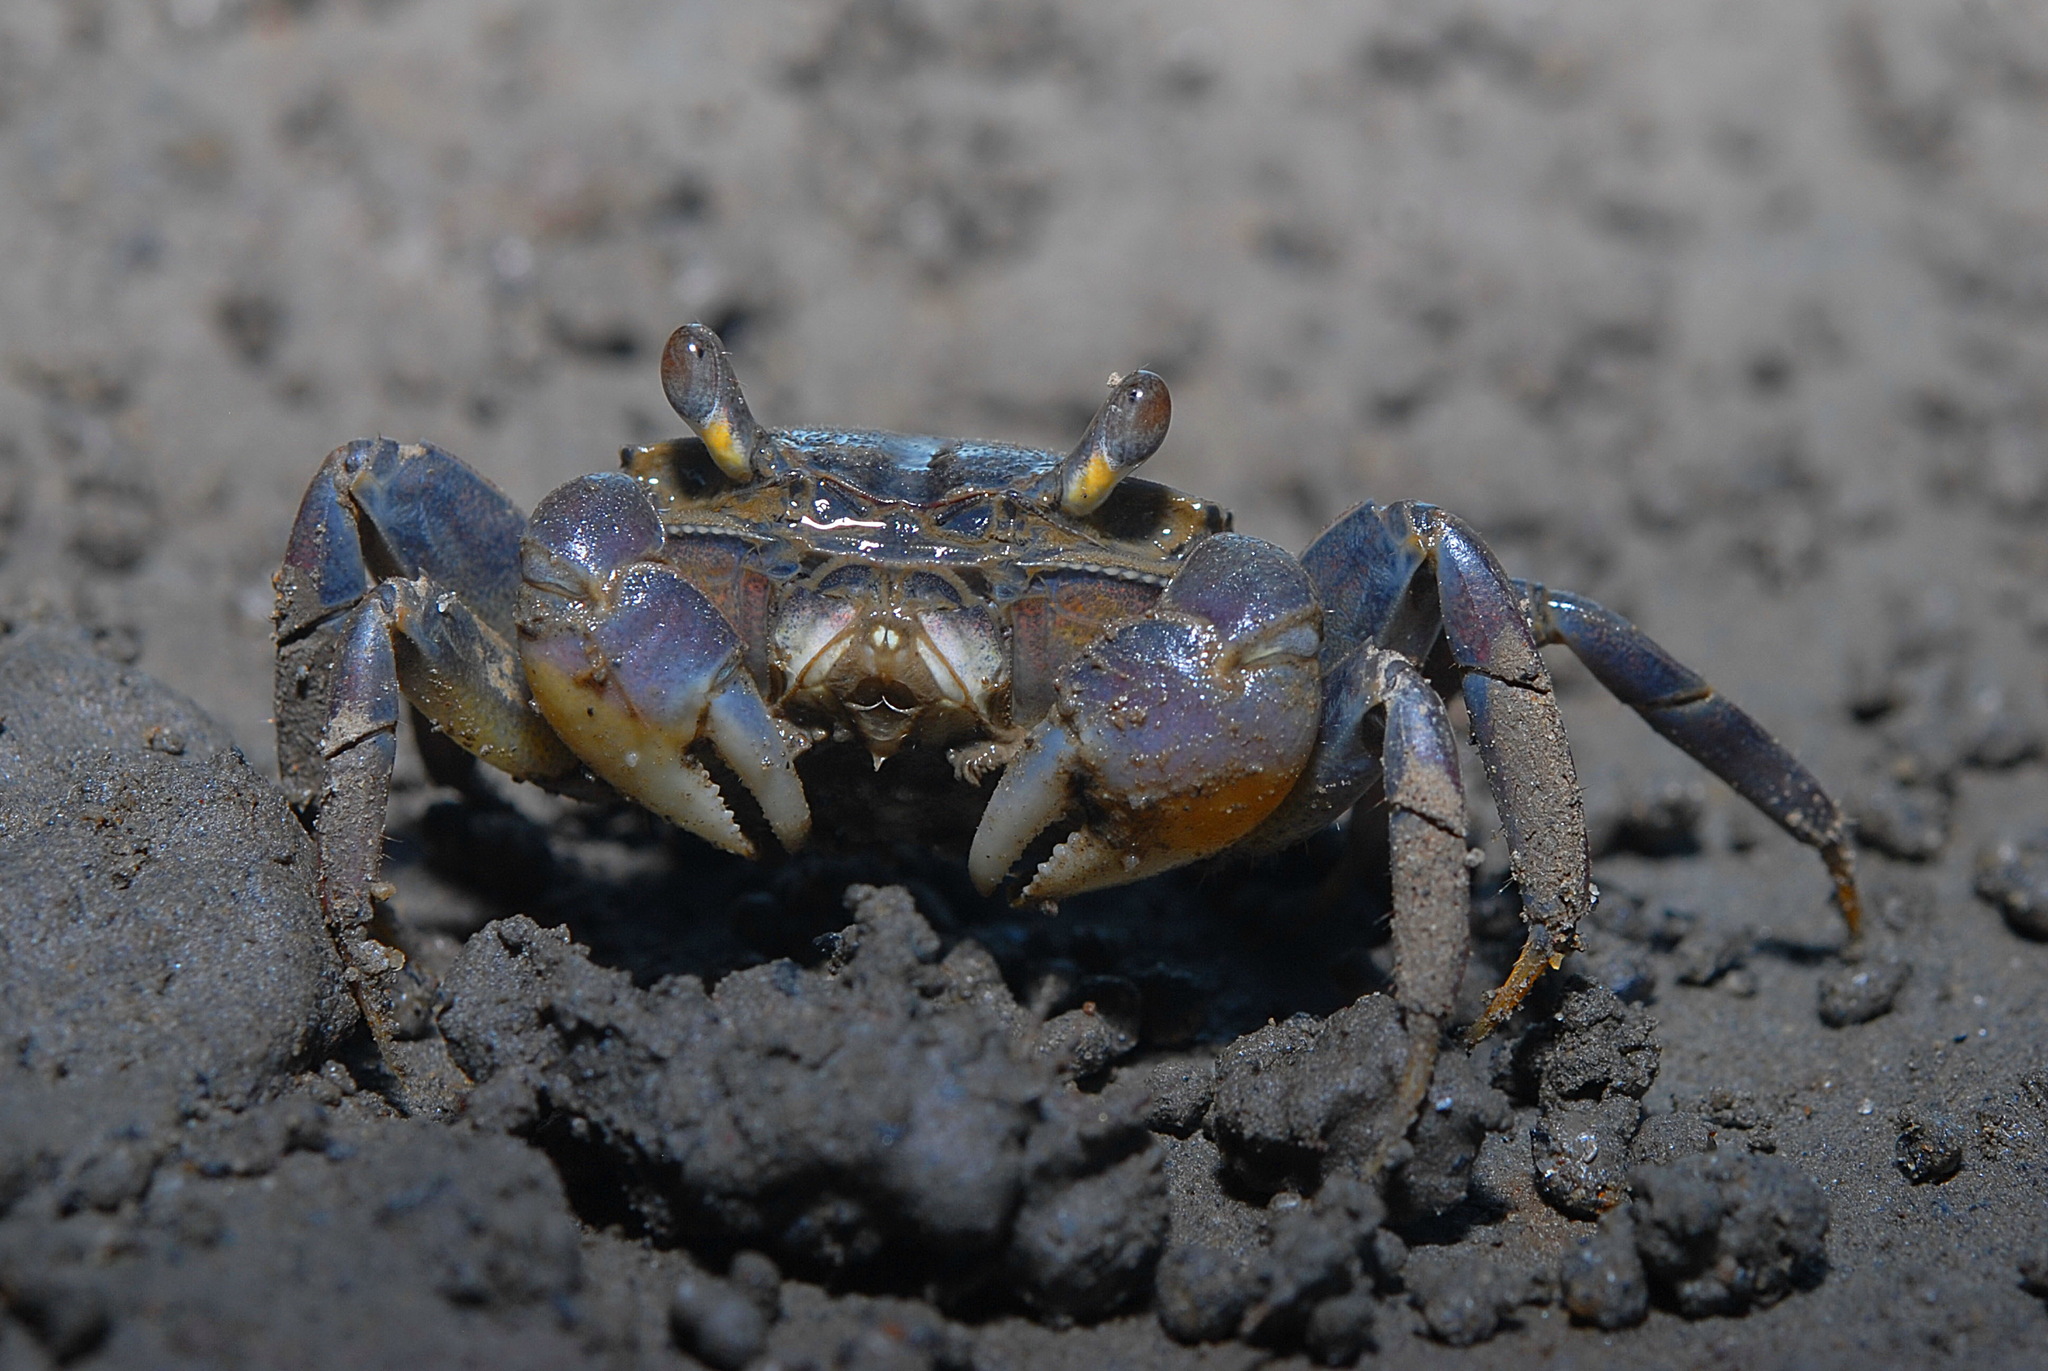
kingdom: Animalia
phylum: Arthropoda
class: Malacostraca
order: Decapoda
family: Varunidae
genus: Helice
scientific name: Helice formosensis
